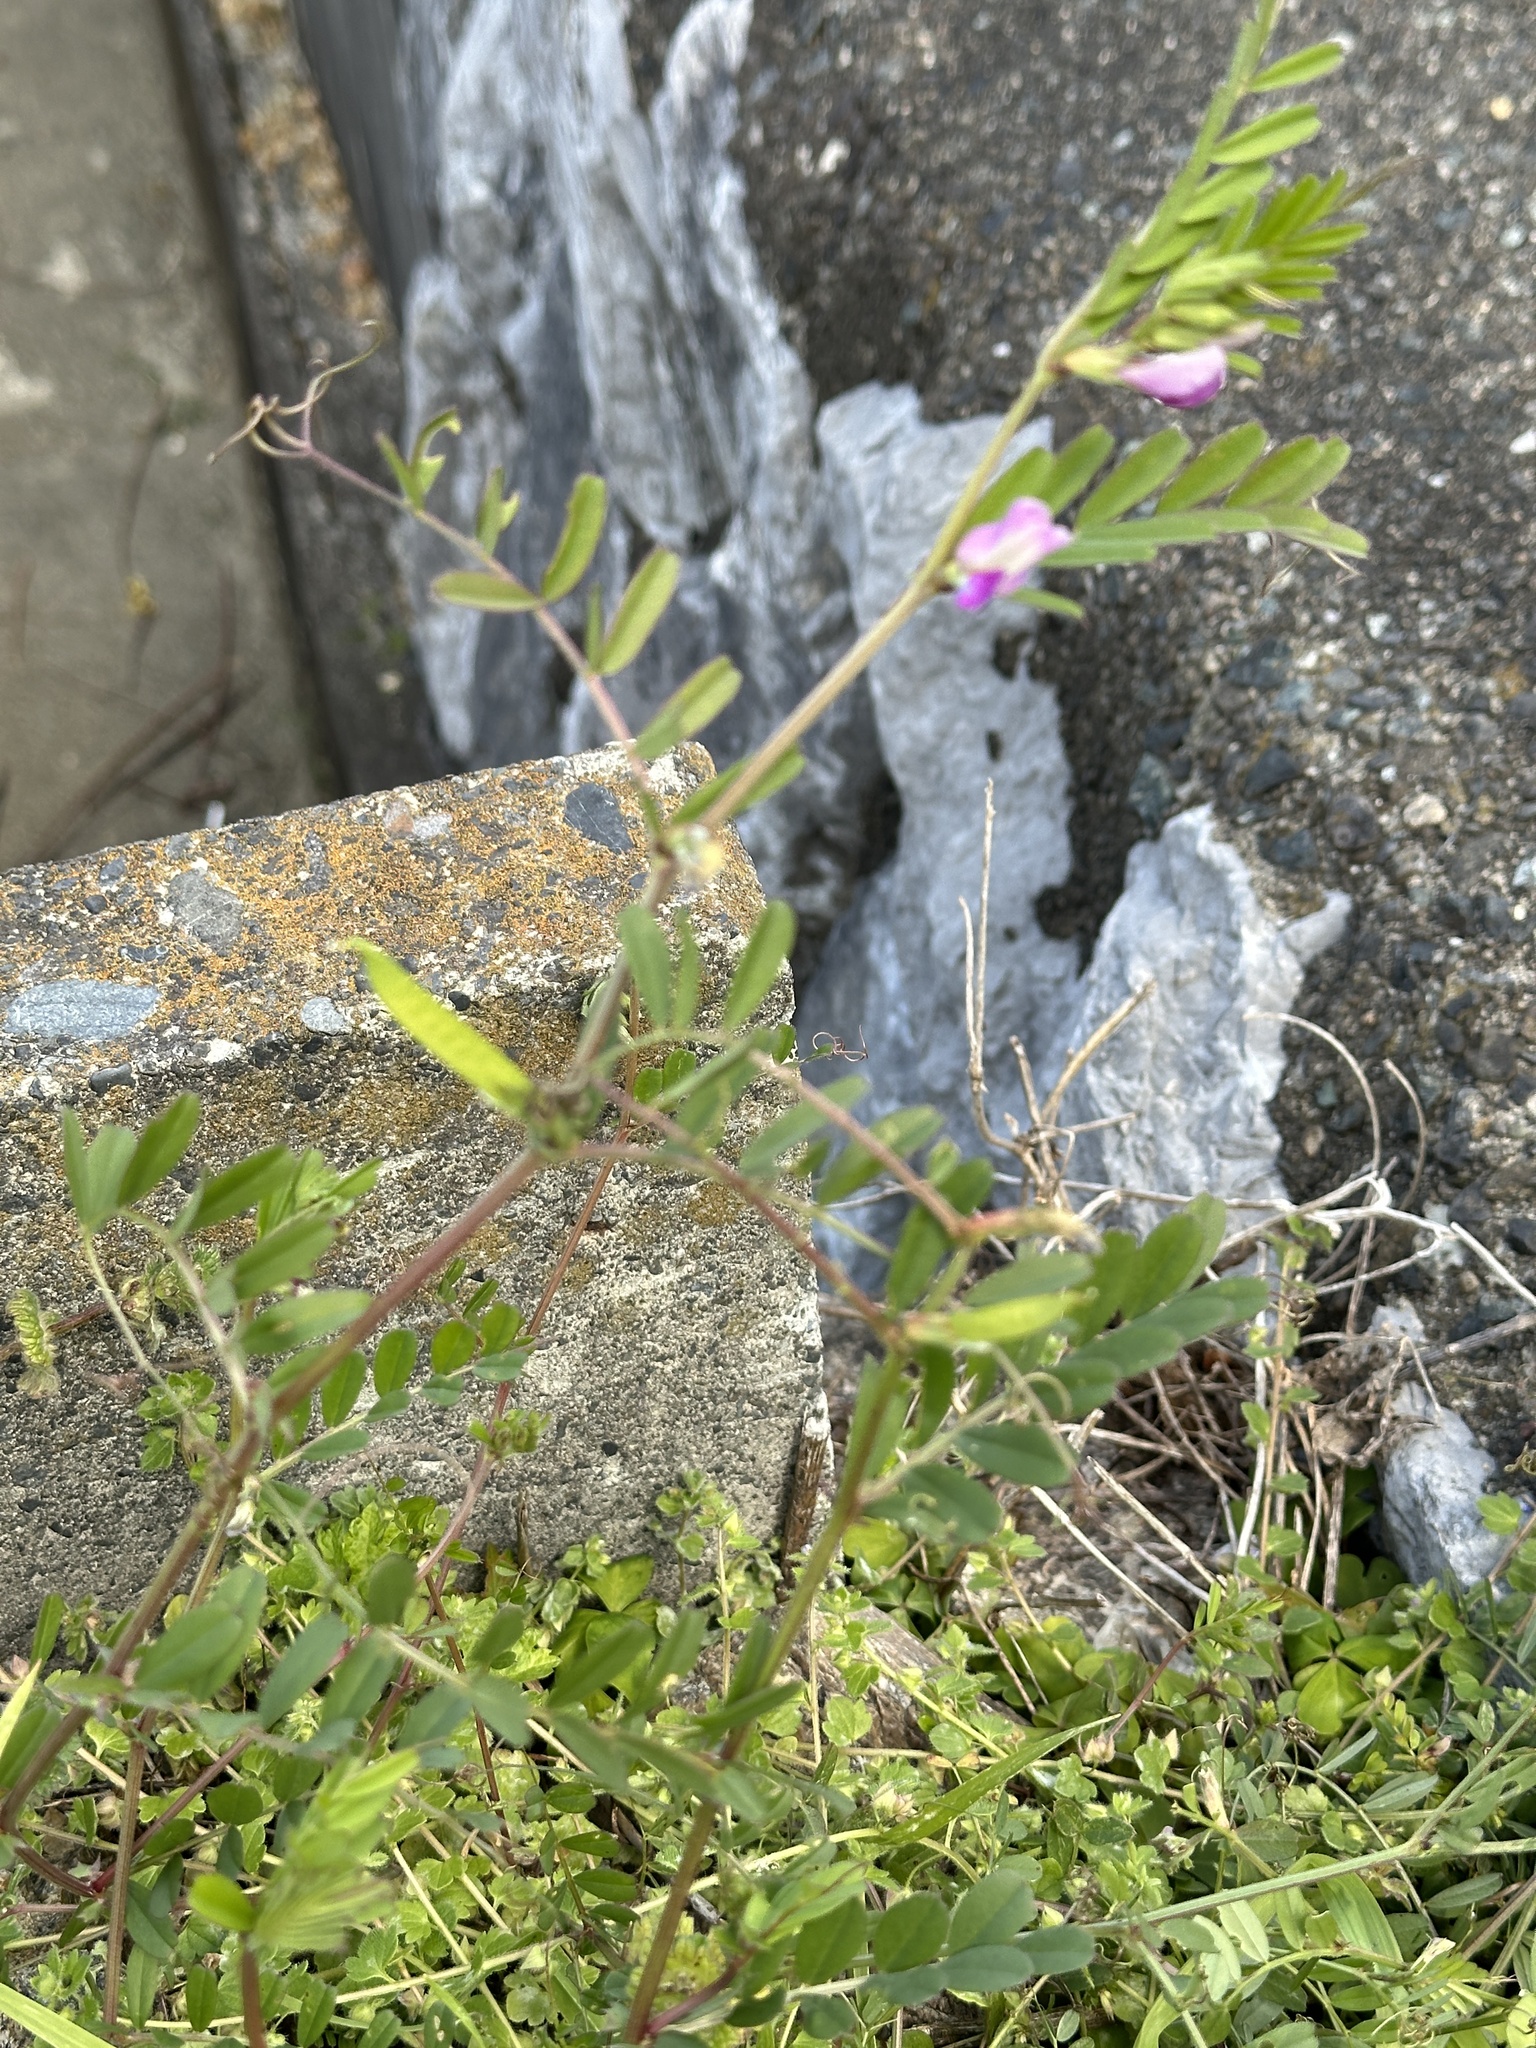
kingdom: Plantae
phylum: Tracheophyta
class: Magnoliopsida
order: Fabales
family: Fabaceae
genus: Vicia
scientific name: Vicia sativa
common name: Garden vetch
